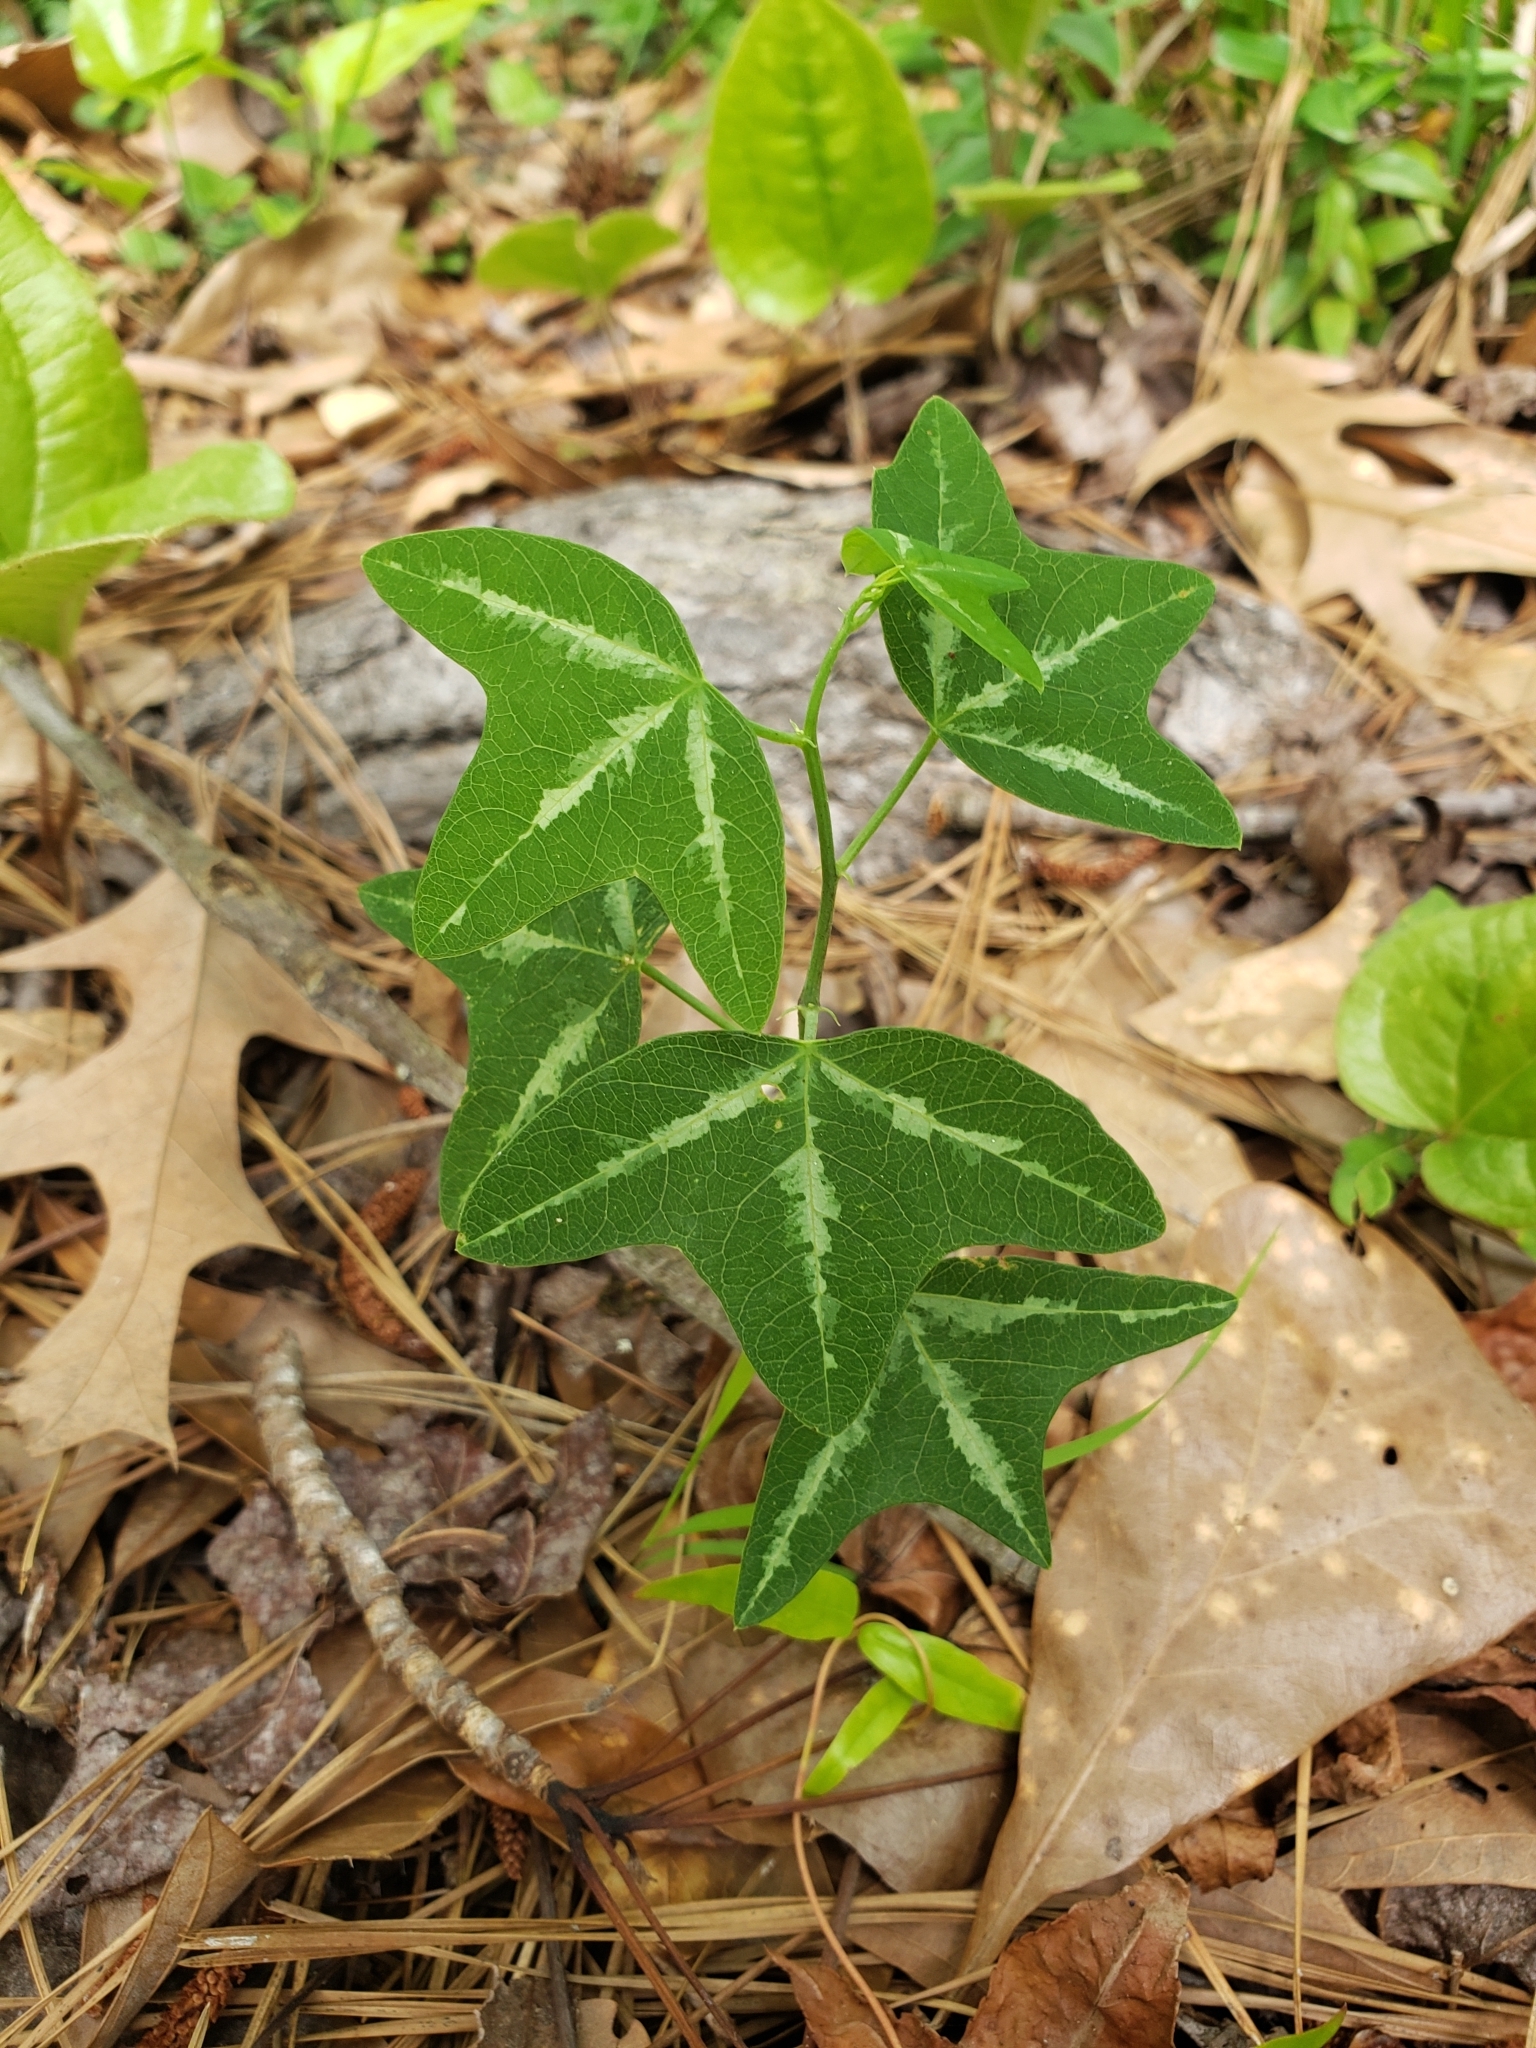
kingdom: Plantae
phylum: Tracheophyta
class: Magnoliopsida
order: Malpighiales
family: Passifloraceae
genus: Passiflora
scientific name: Passiflora lutea
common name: Yellow passionflower
